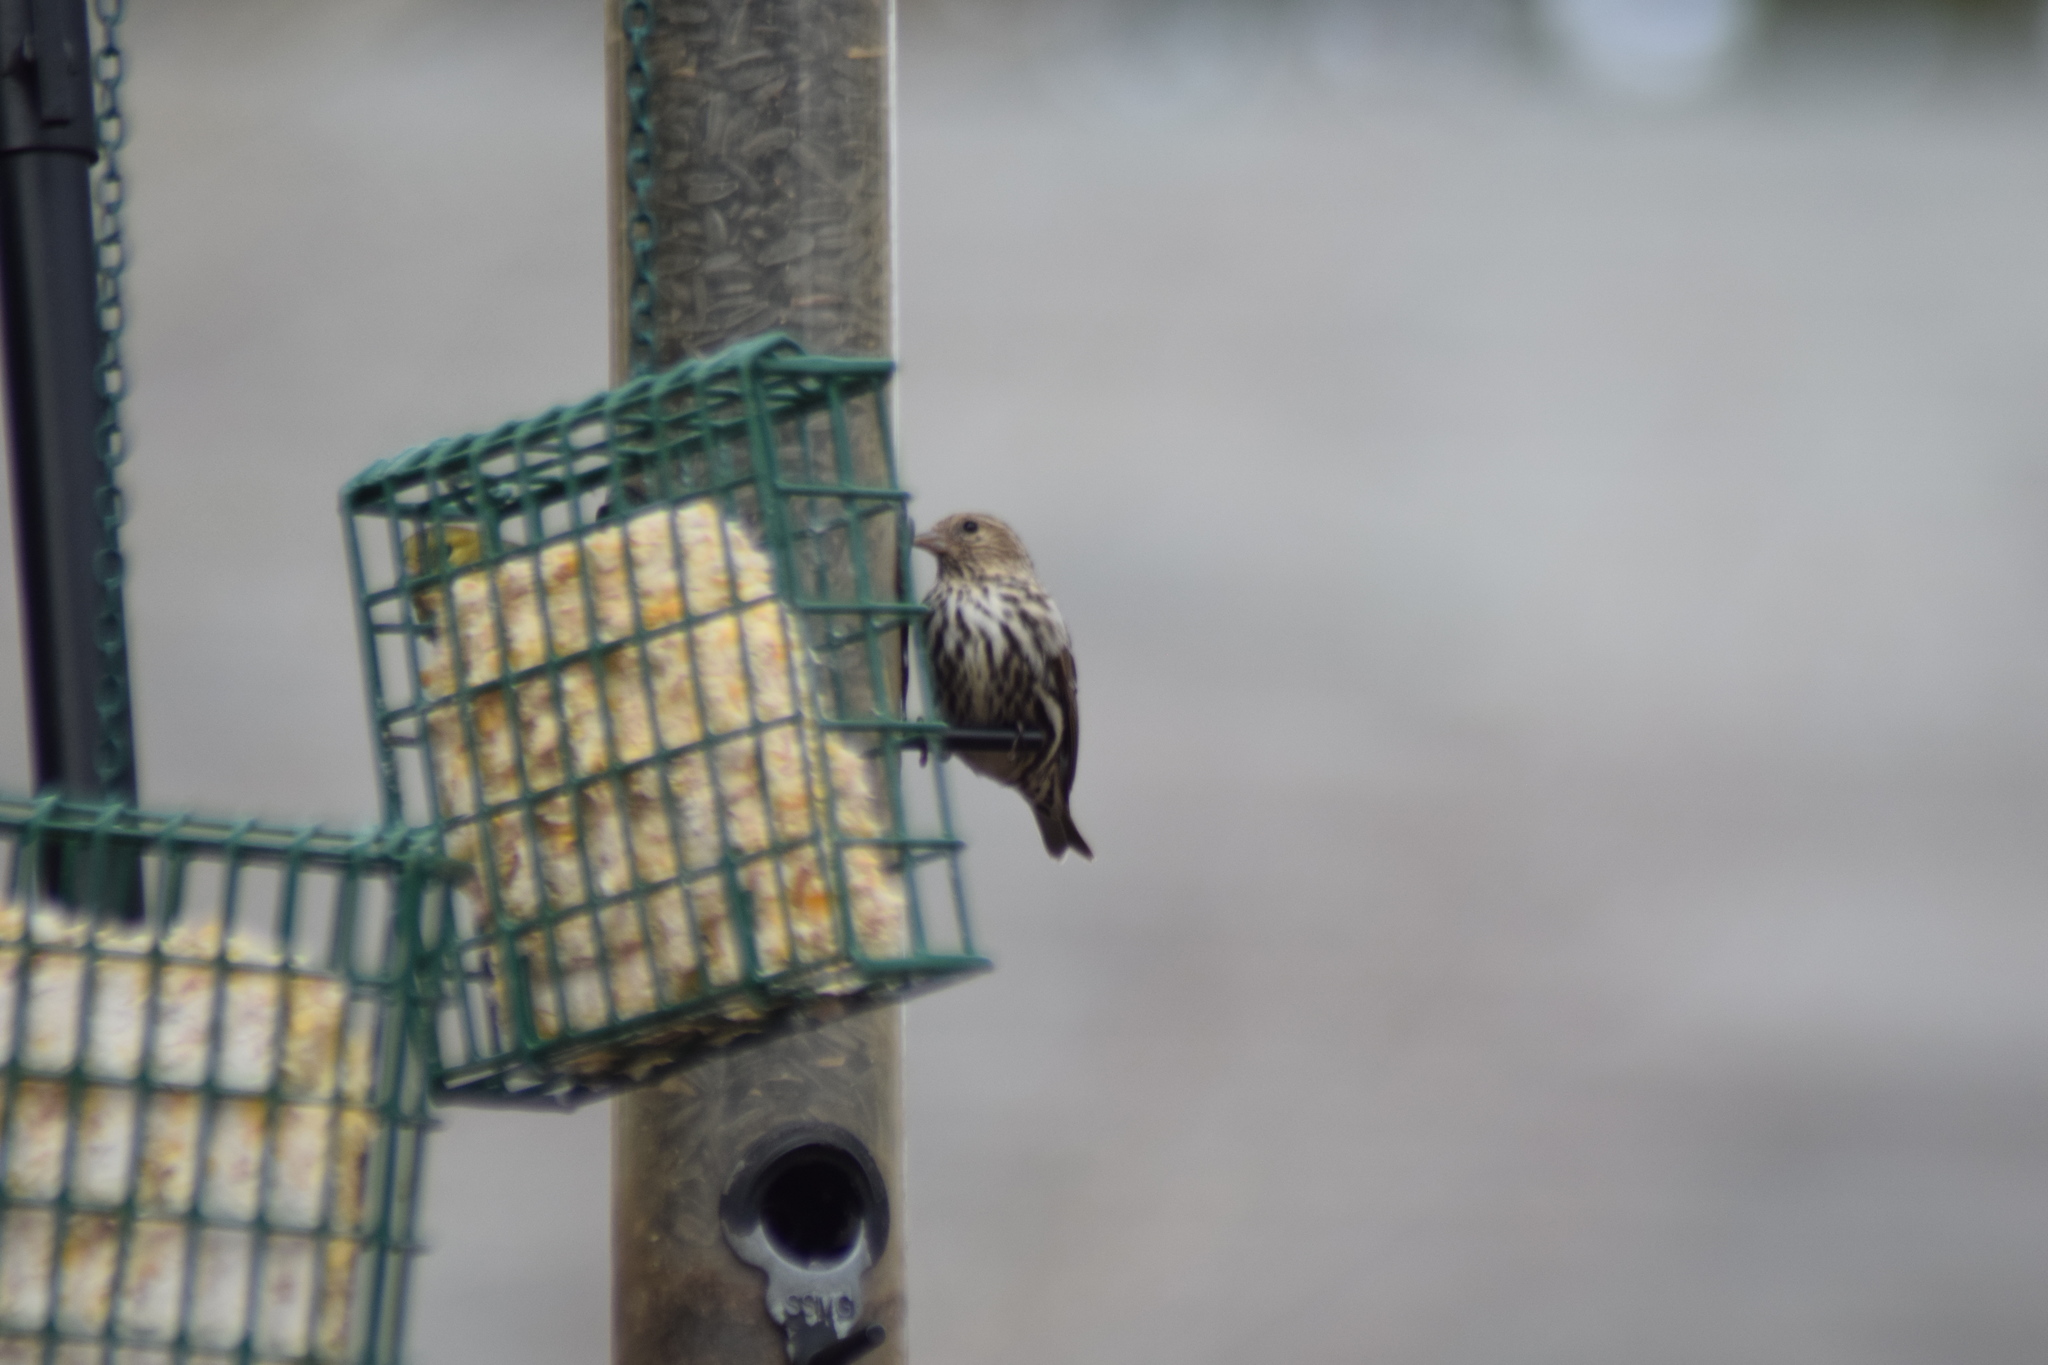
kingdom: Animalia
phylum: Chordata
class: Aves
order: Passeriformes
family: Fringillidae
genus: Spinus
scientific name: Spinus pinus
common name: Pine siskin
